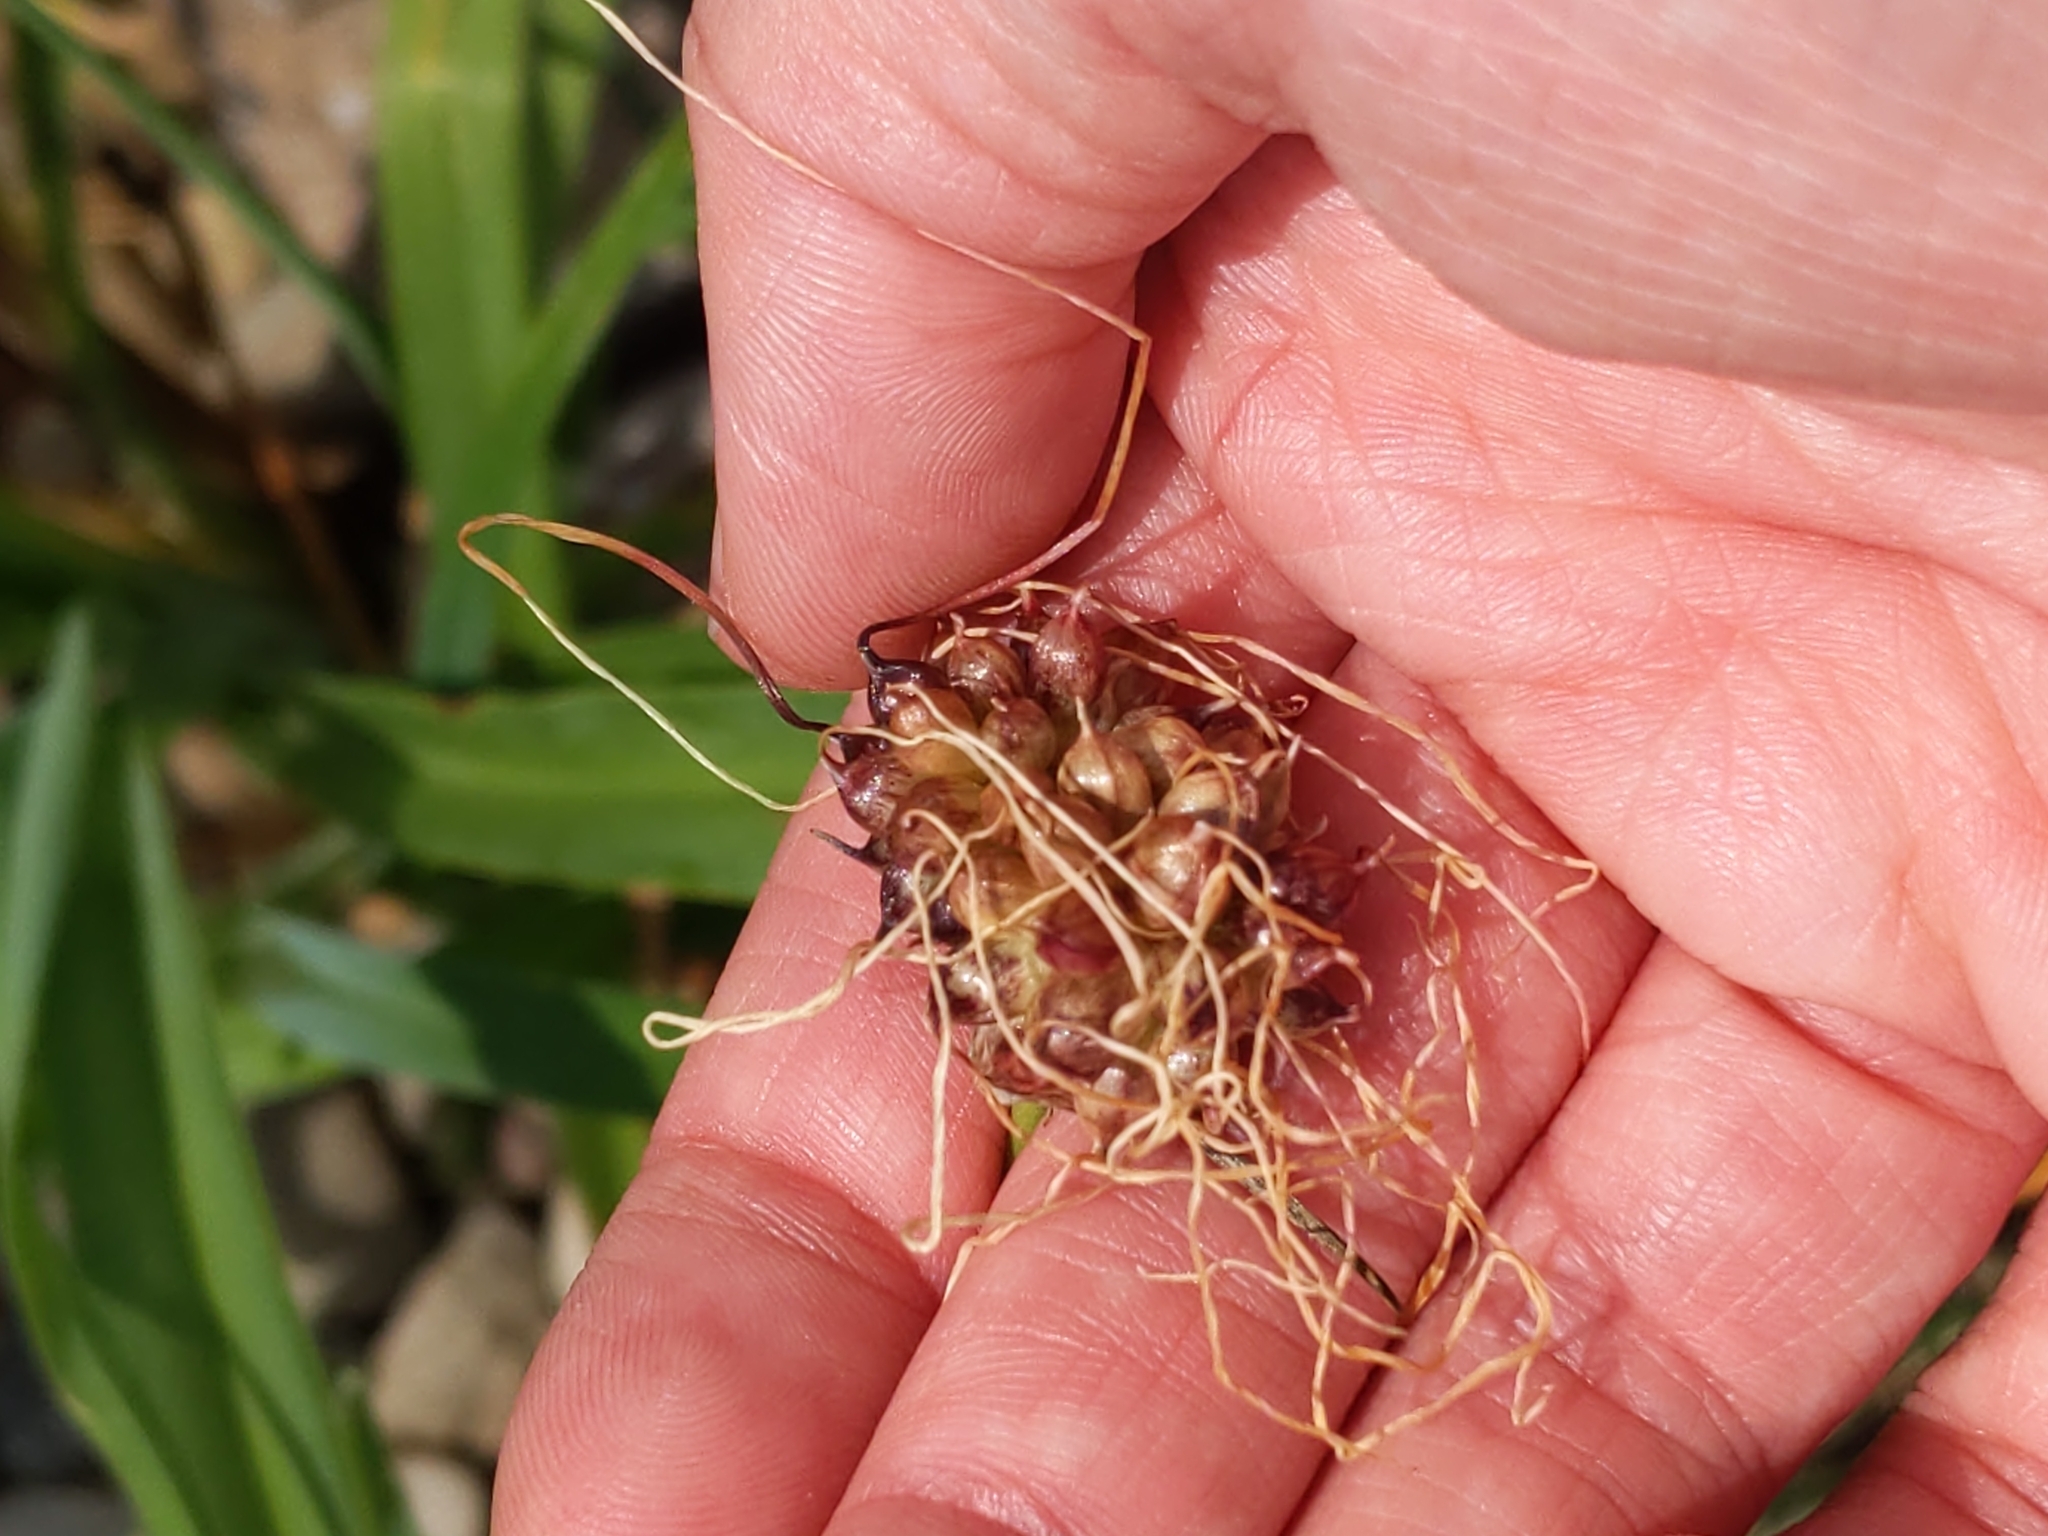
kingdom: Plantae
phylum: Tracheophyta
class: Liliopsida
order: Asparagales
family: Amaryllidaceae
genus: Allium
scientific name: Allium vineale
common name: Crow garlic
